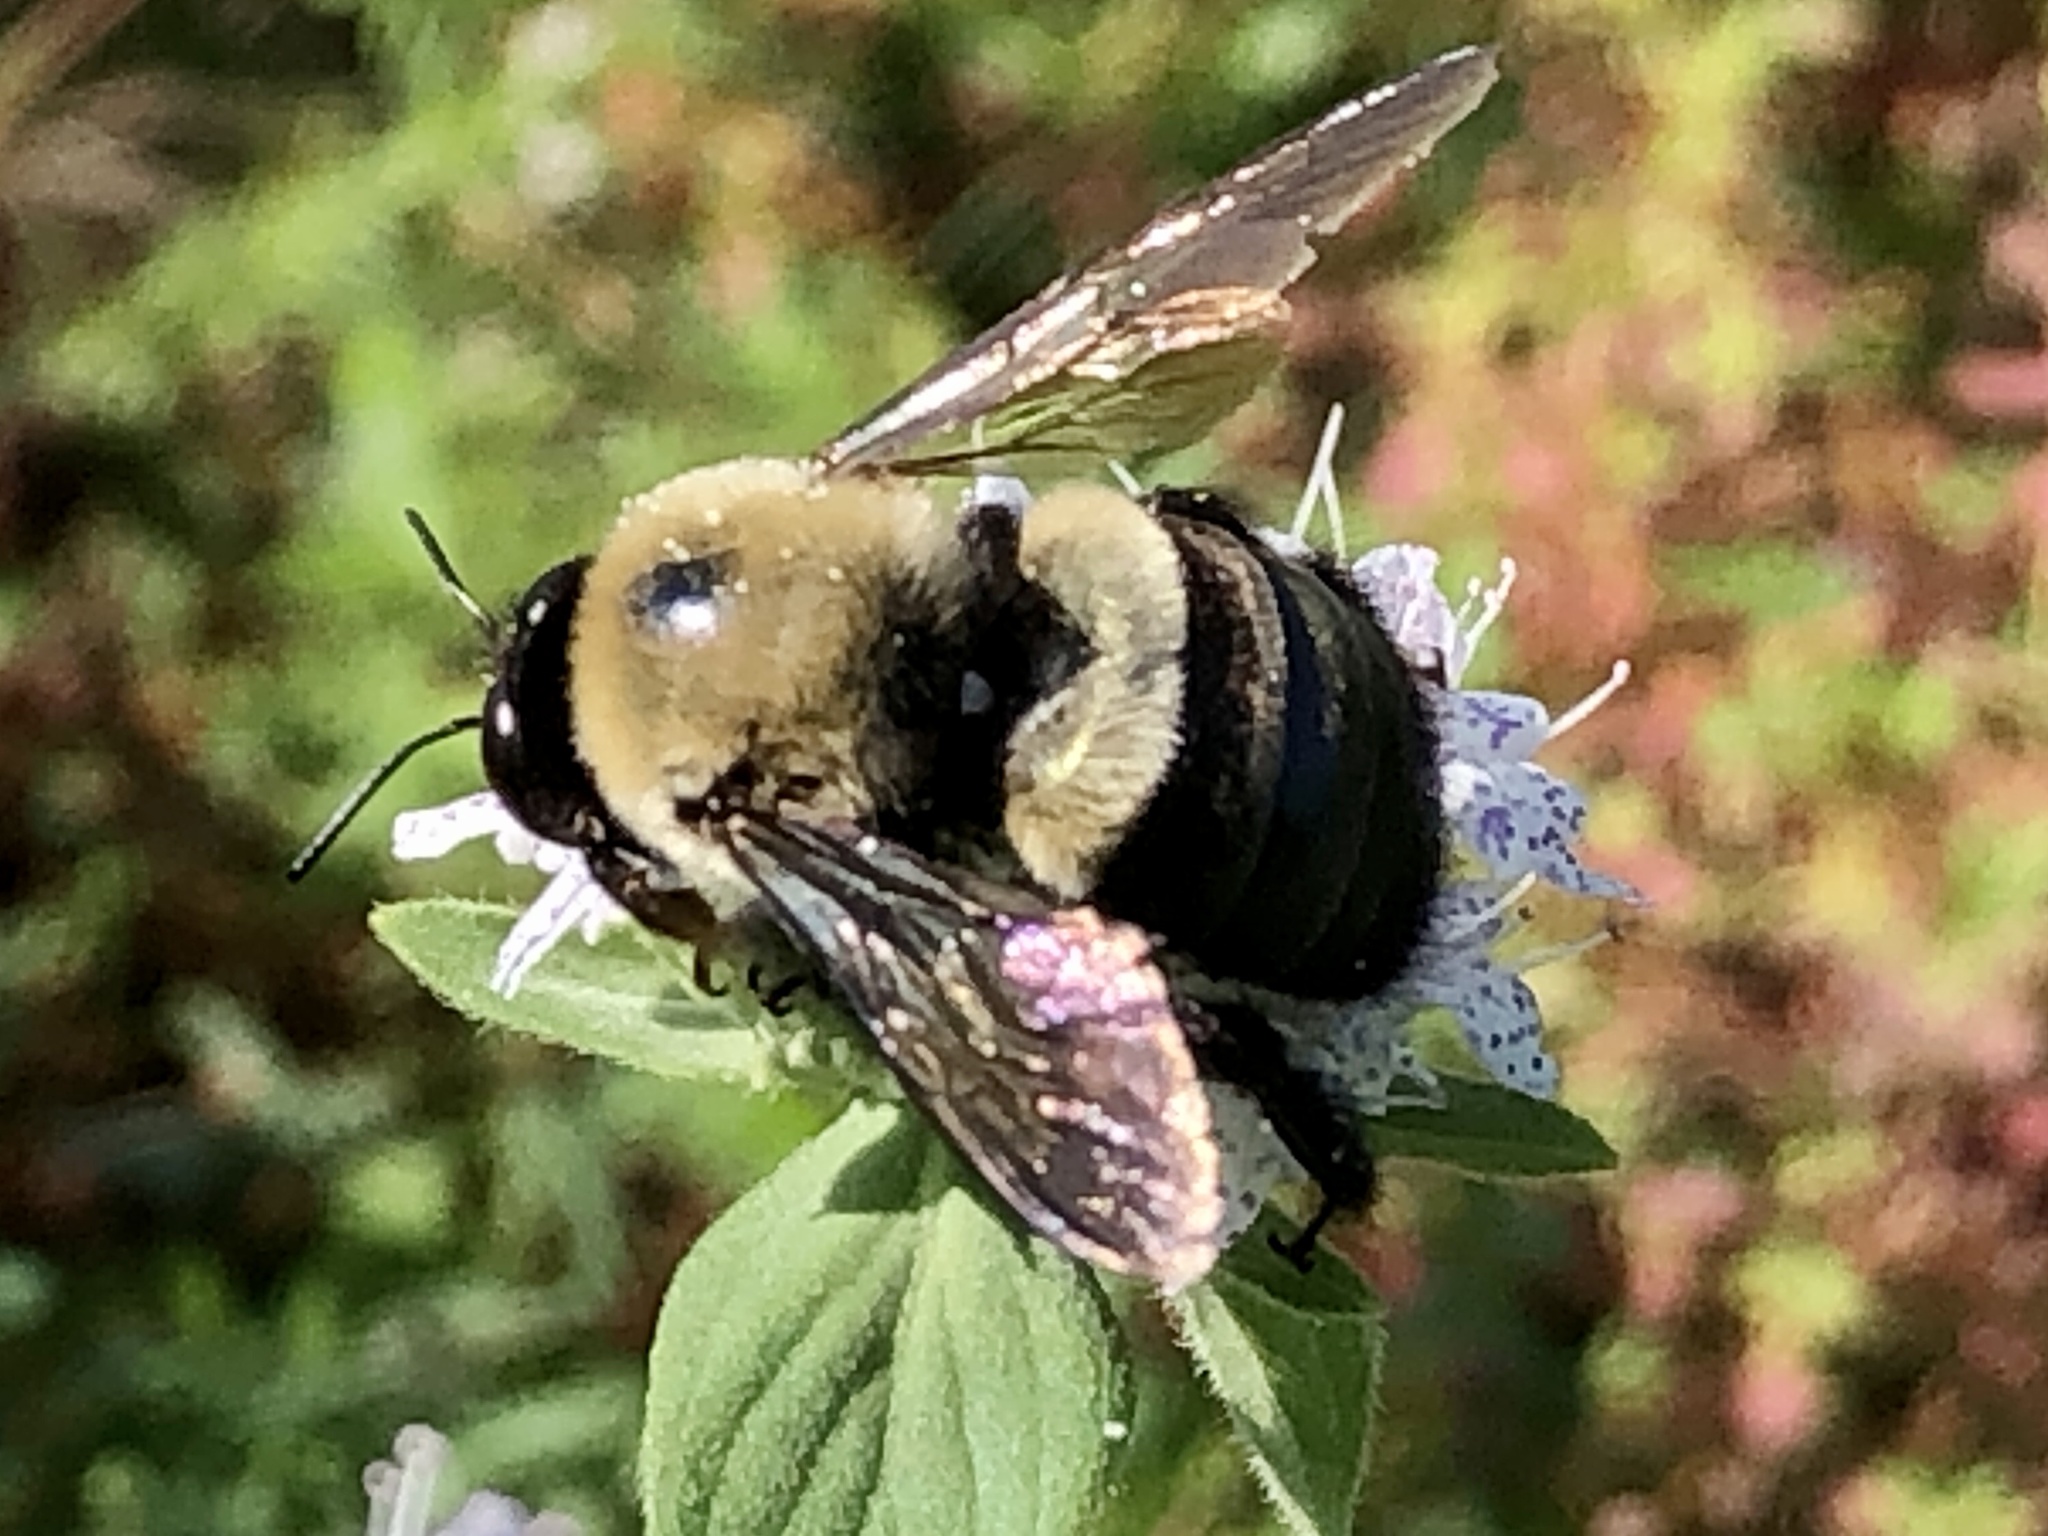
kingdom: Animalia
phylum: Arthropoda
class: Insecta
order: Hymenoptera
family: Apidae
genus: Xylocopa
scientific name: Xylocopa virginica
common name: Carpenter bee
